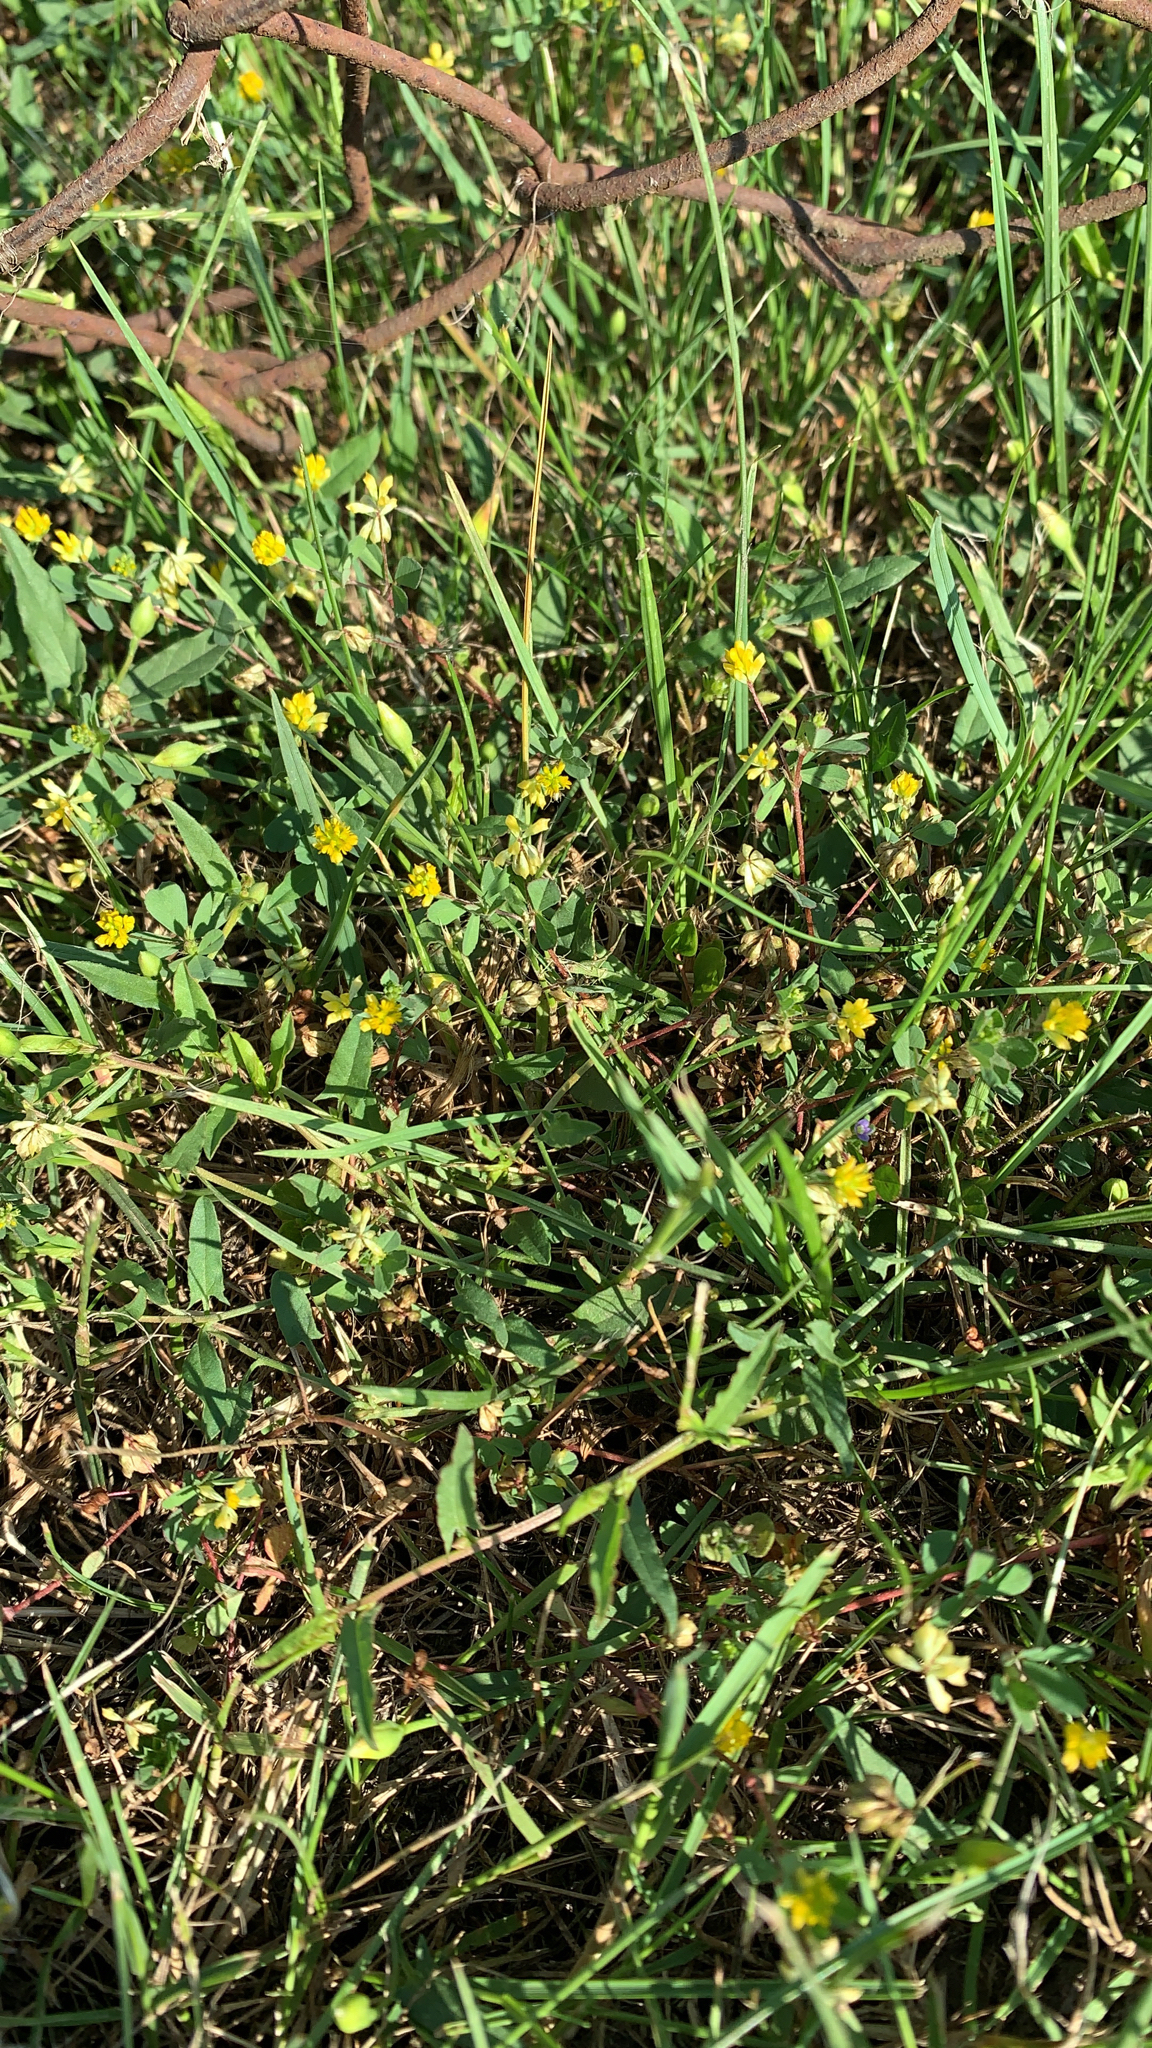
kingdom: Plantae
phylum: Tracheophyta
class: Magnoliopsida
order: Fabales
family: Fabaceae
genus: Trifolium
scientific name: Trifolium dubium
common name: Suckling clover
